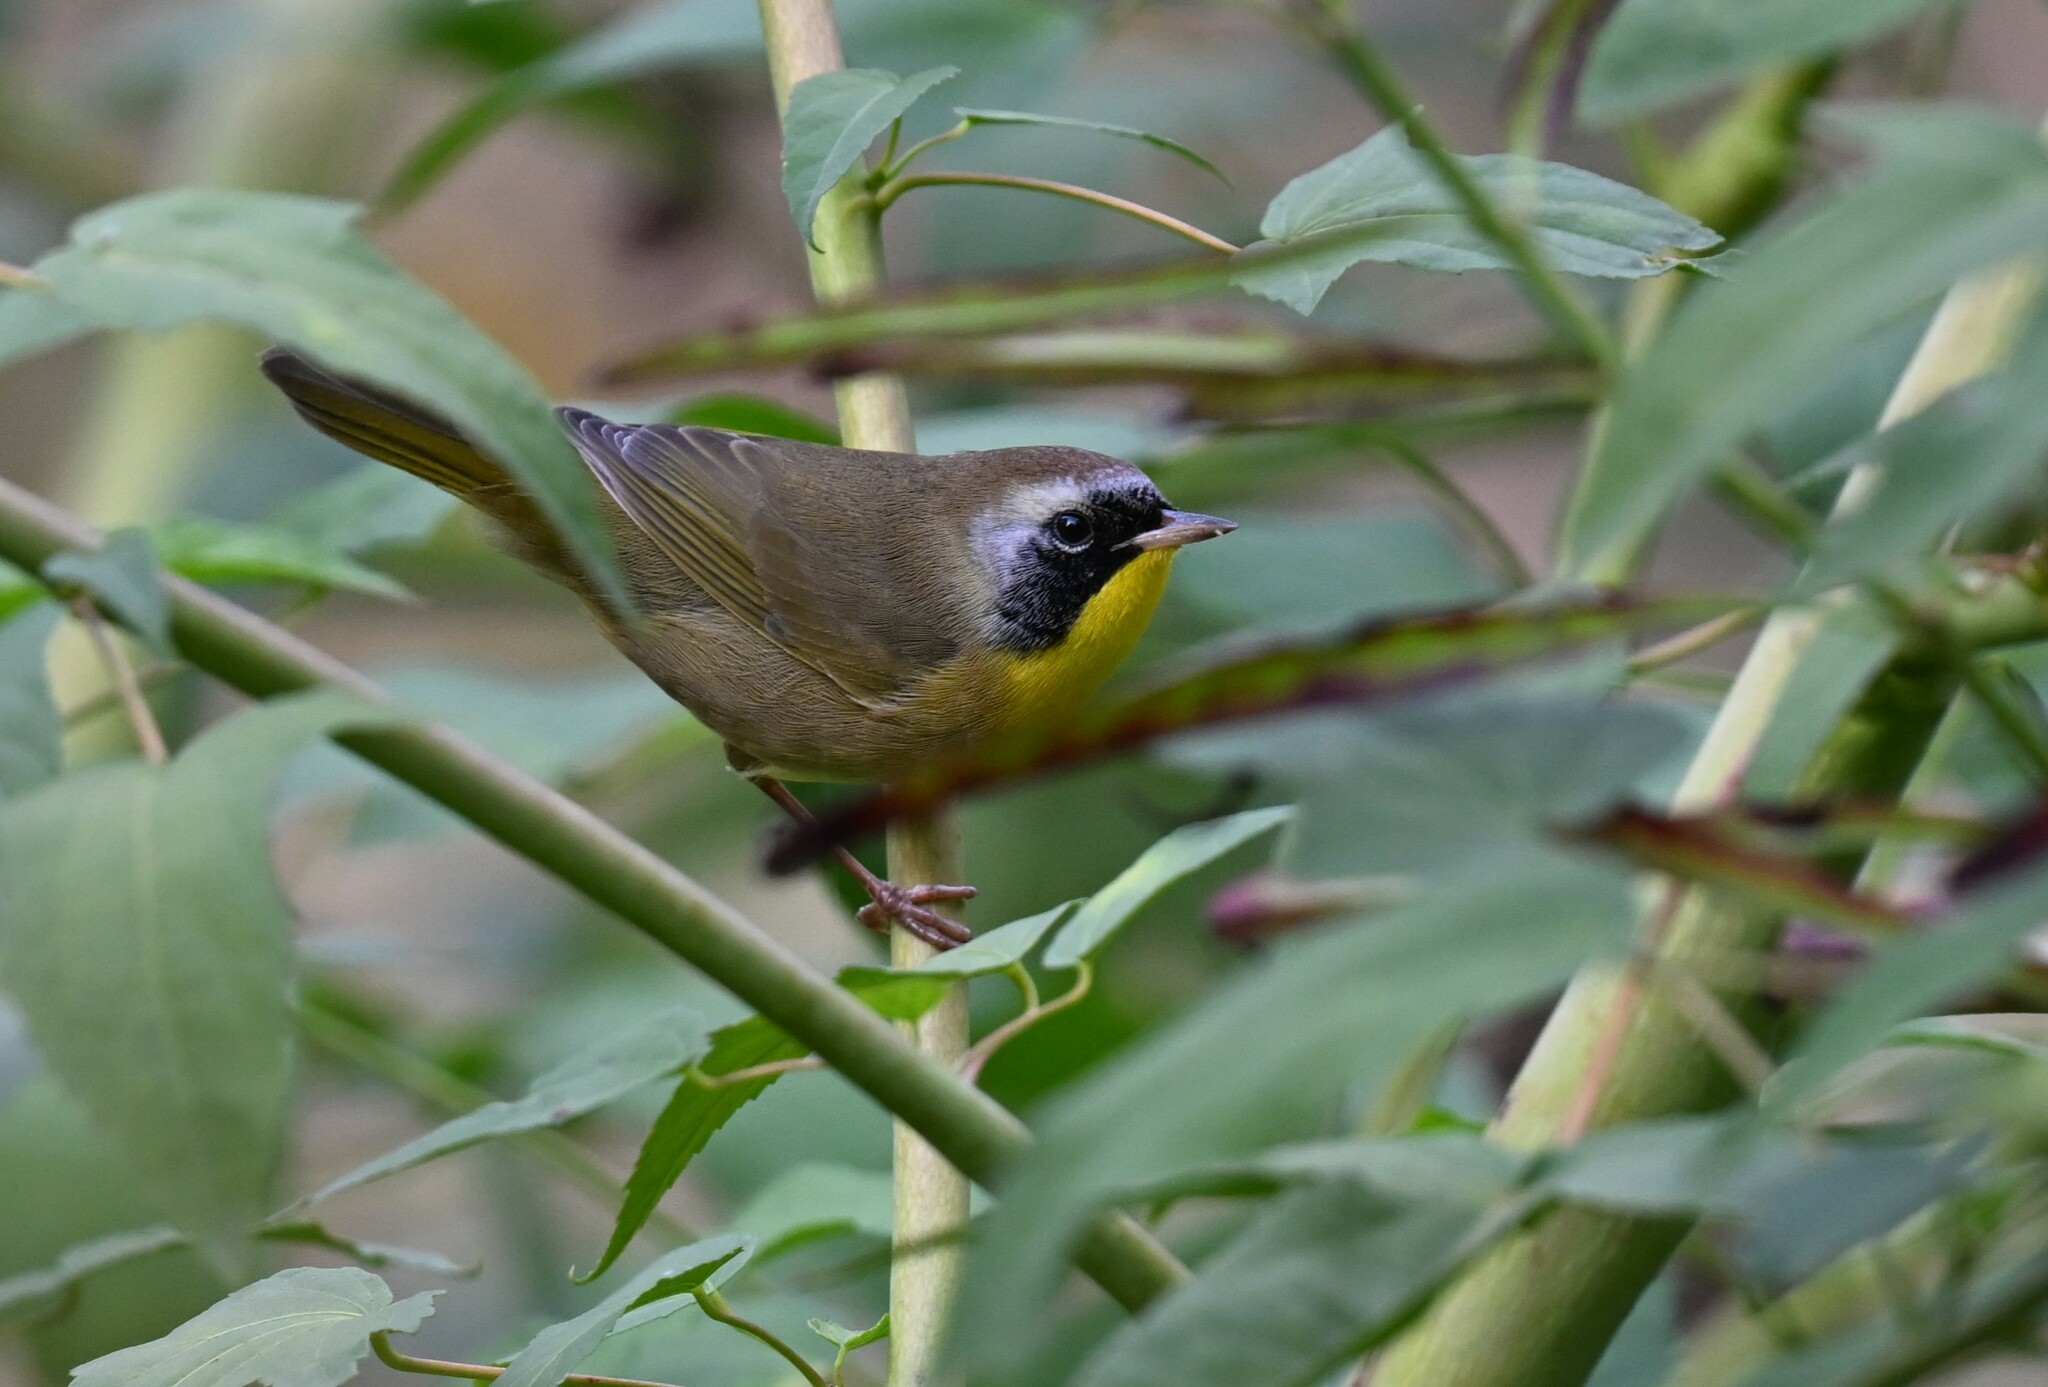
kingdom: Animalia
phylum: Chordata
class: Aves
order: Passeriformes
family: Parulidae
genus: Geothlypis
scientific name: Geothlypis trichas
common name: Common yellowthroat
